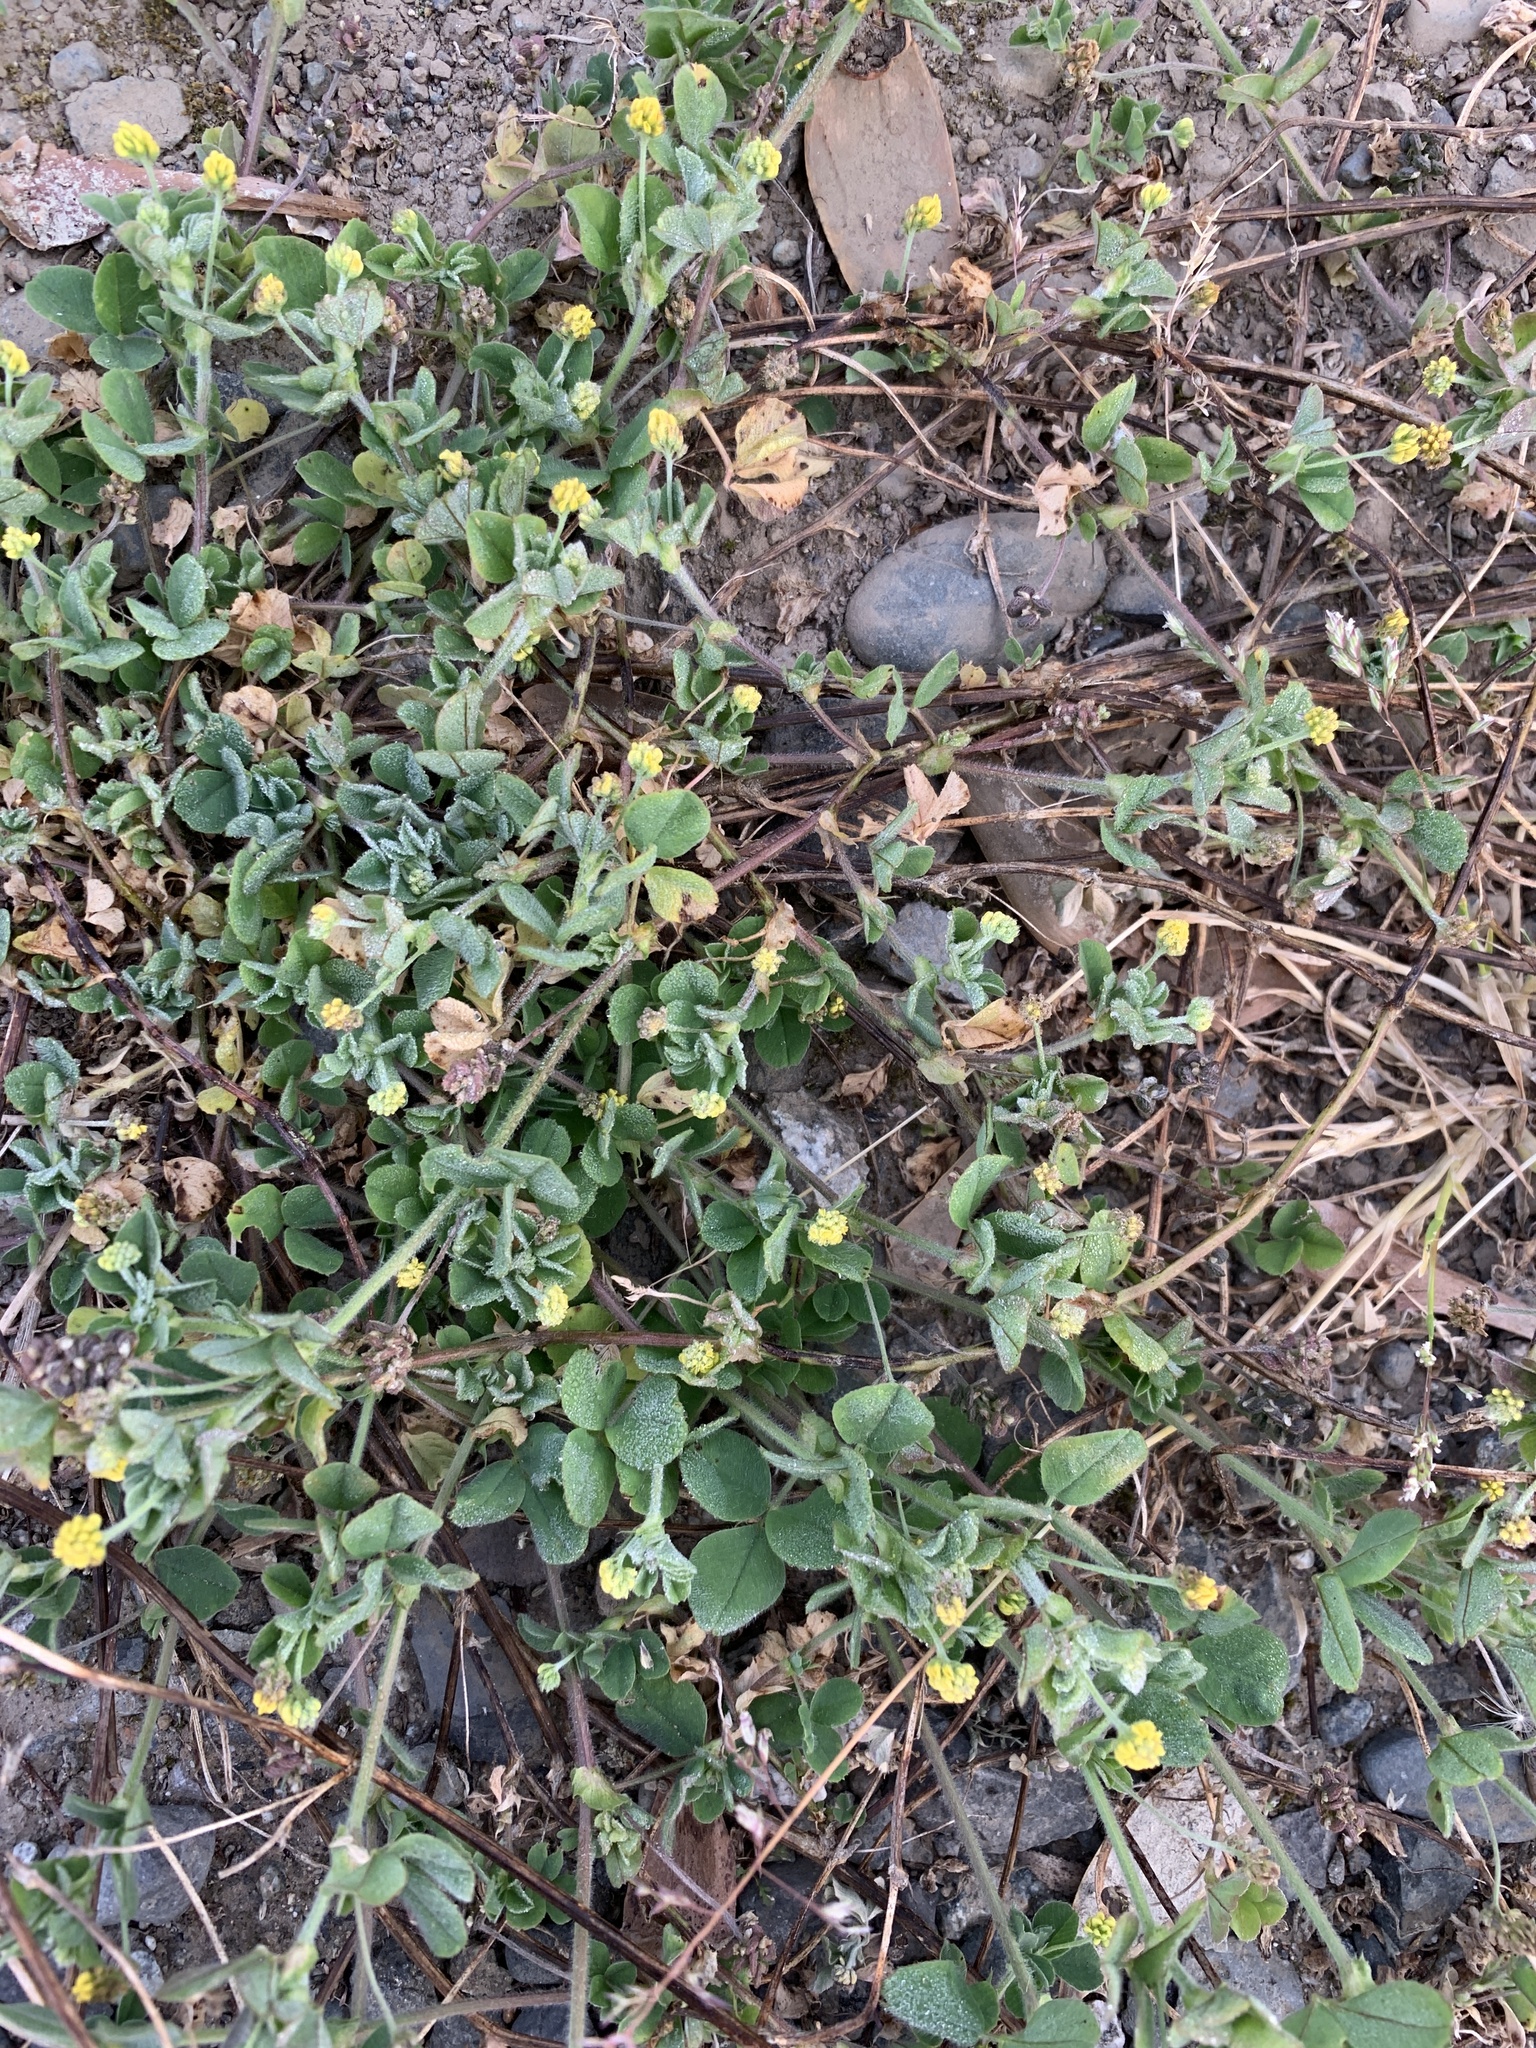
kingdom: Plantae
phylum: Tracheophyta
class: Magnoliopsida
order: Fabales
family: Fabaceae
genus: Medicago
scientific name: Medicago lupulina
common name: Black medick
